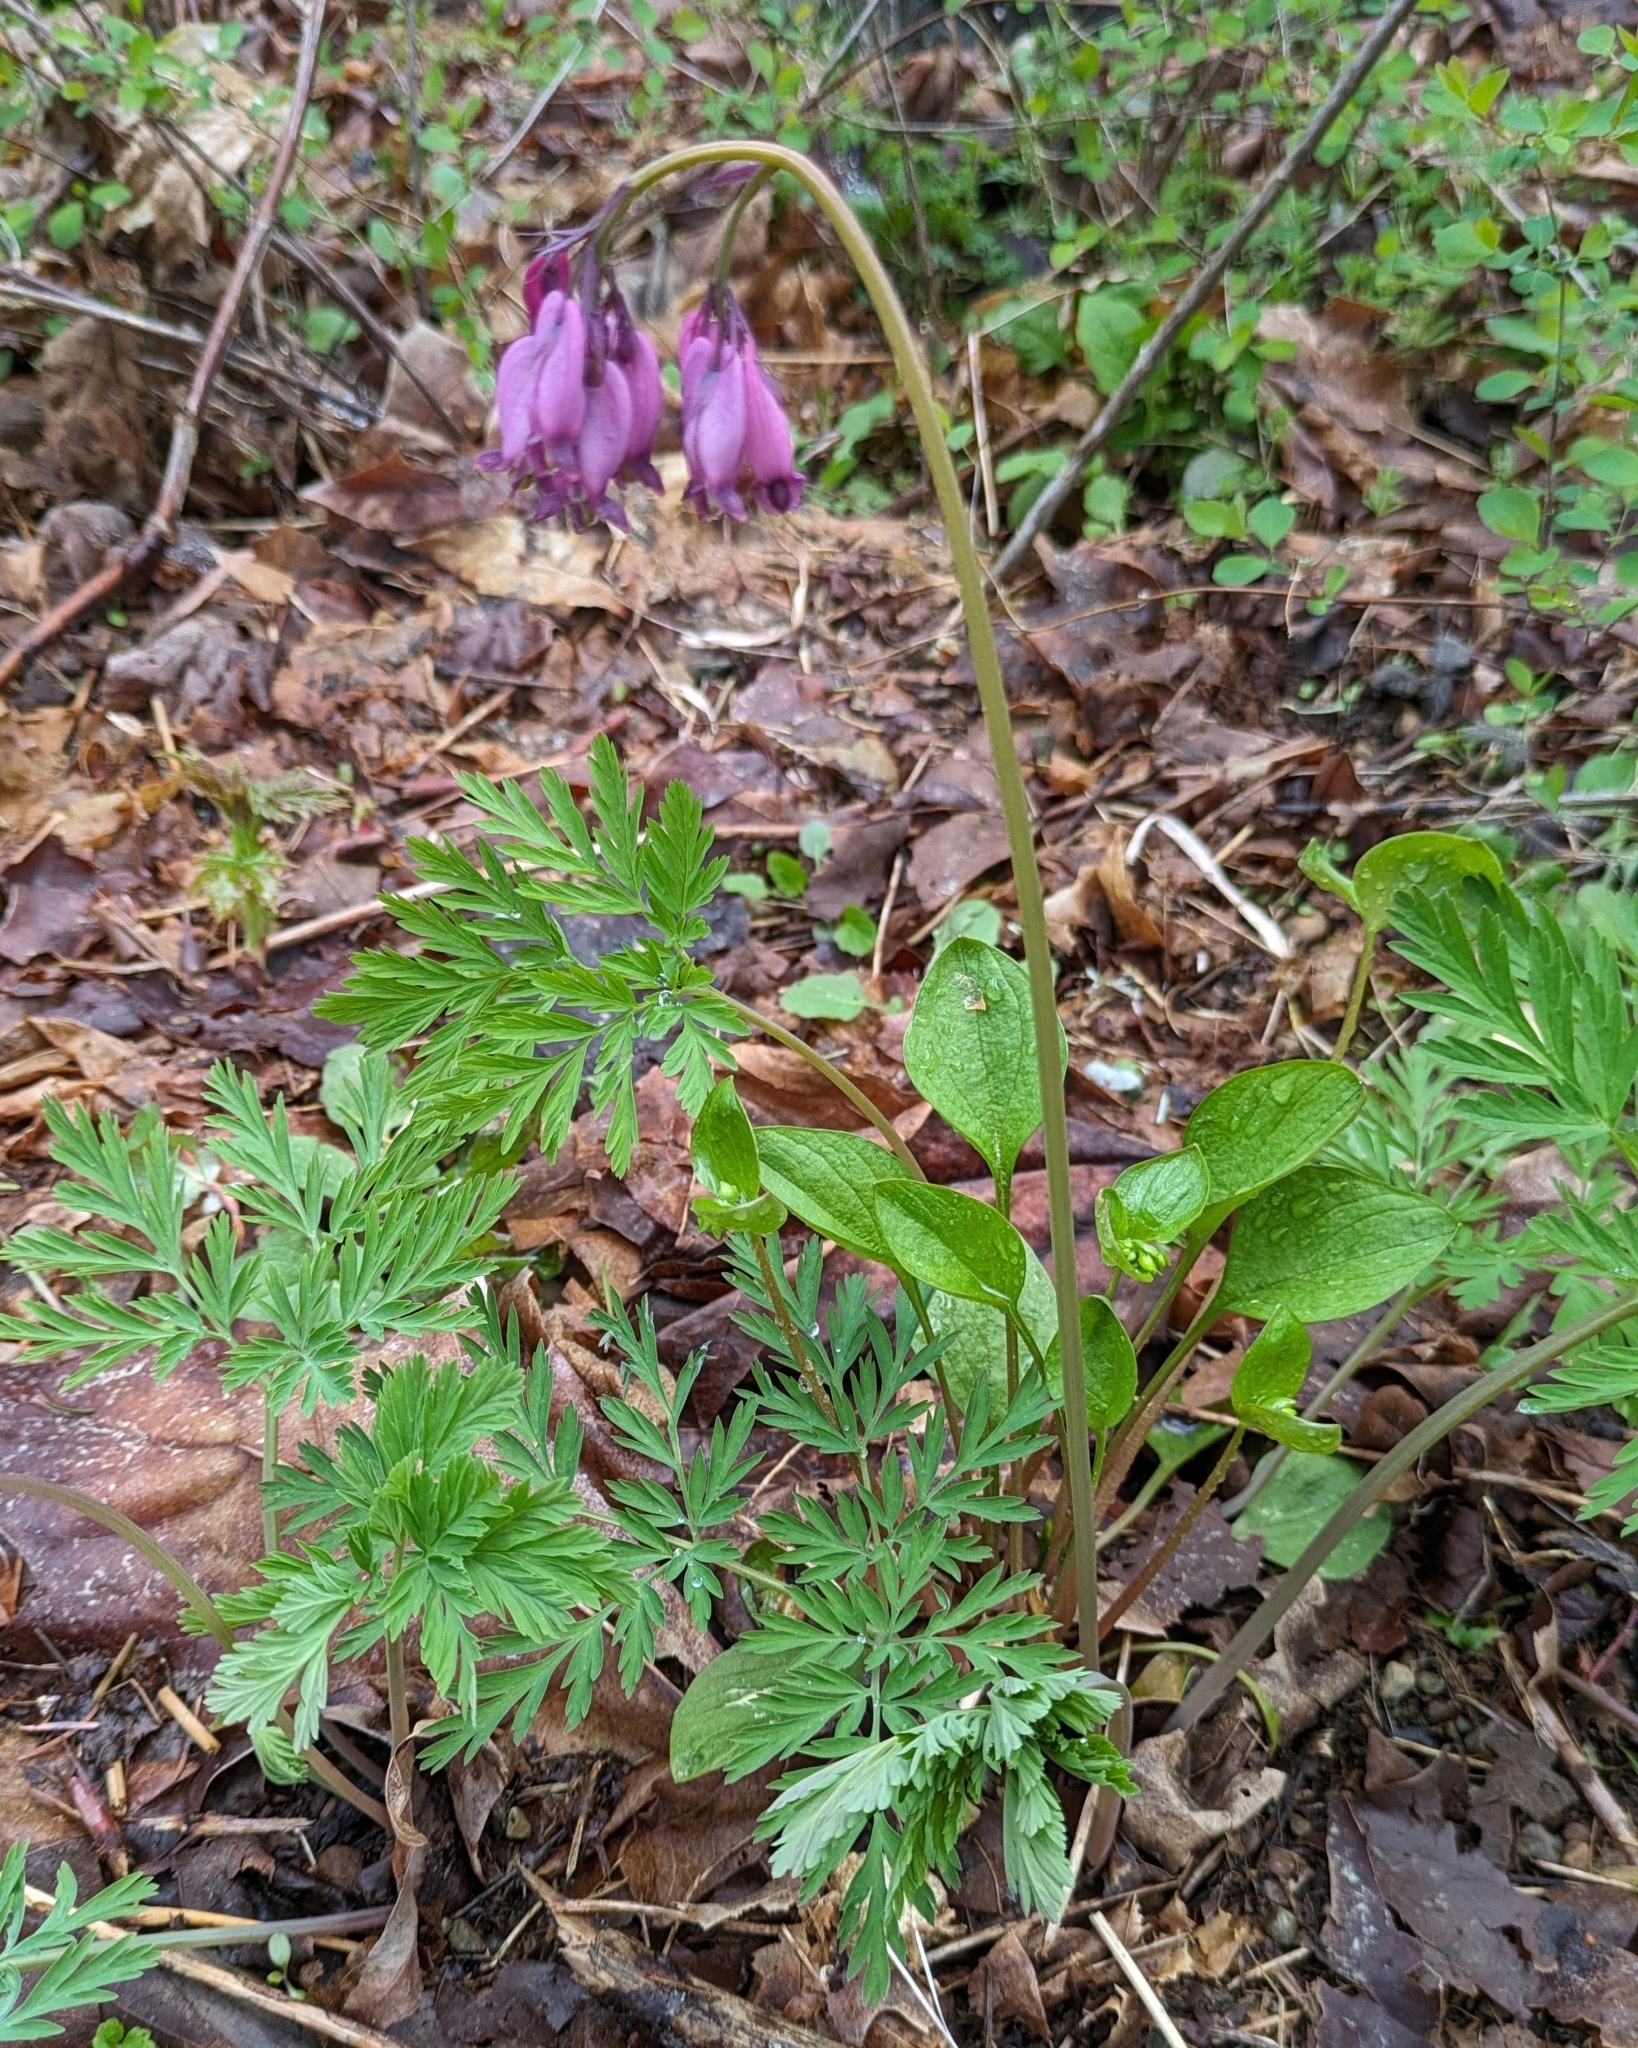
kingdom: Plantae
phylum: Tracheophyta
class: Magnoliopsida
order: Ranunculales
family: Papaveraceae
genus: Dicentra
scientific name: Dicentra formosa
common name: Bleeding-heart
